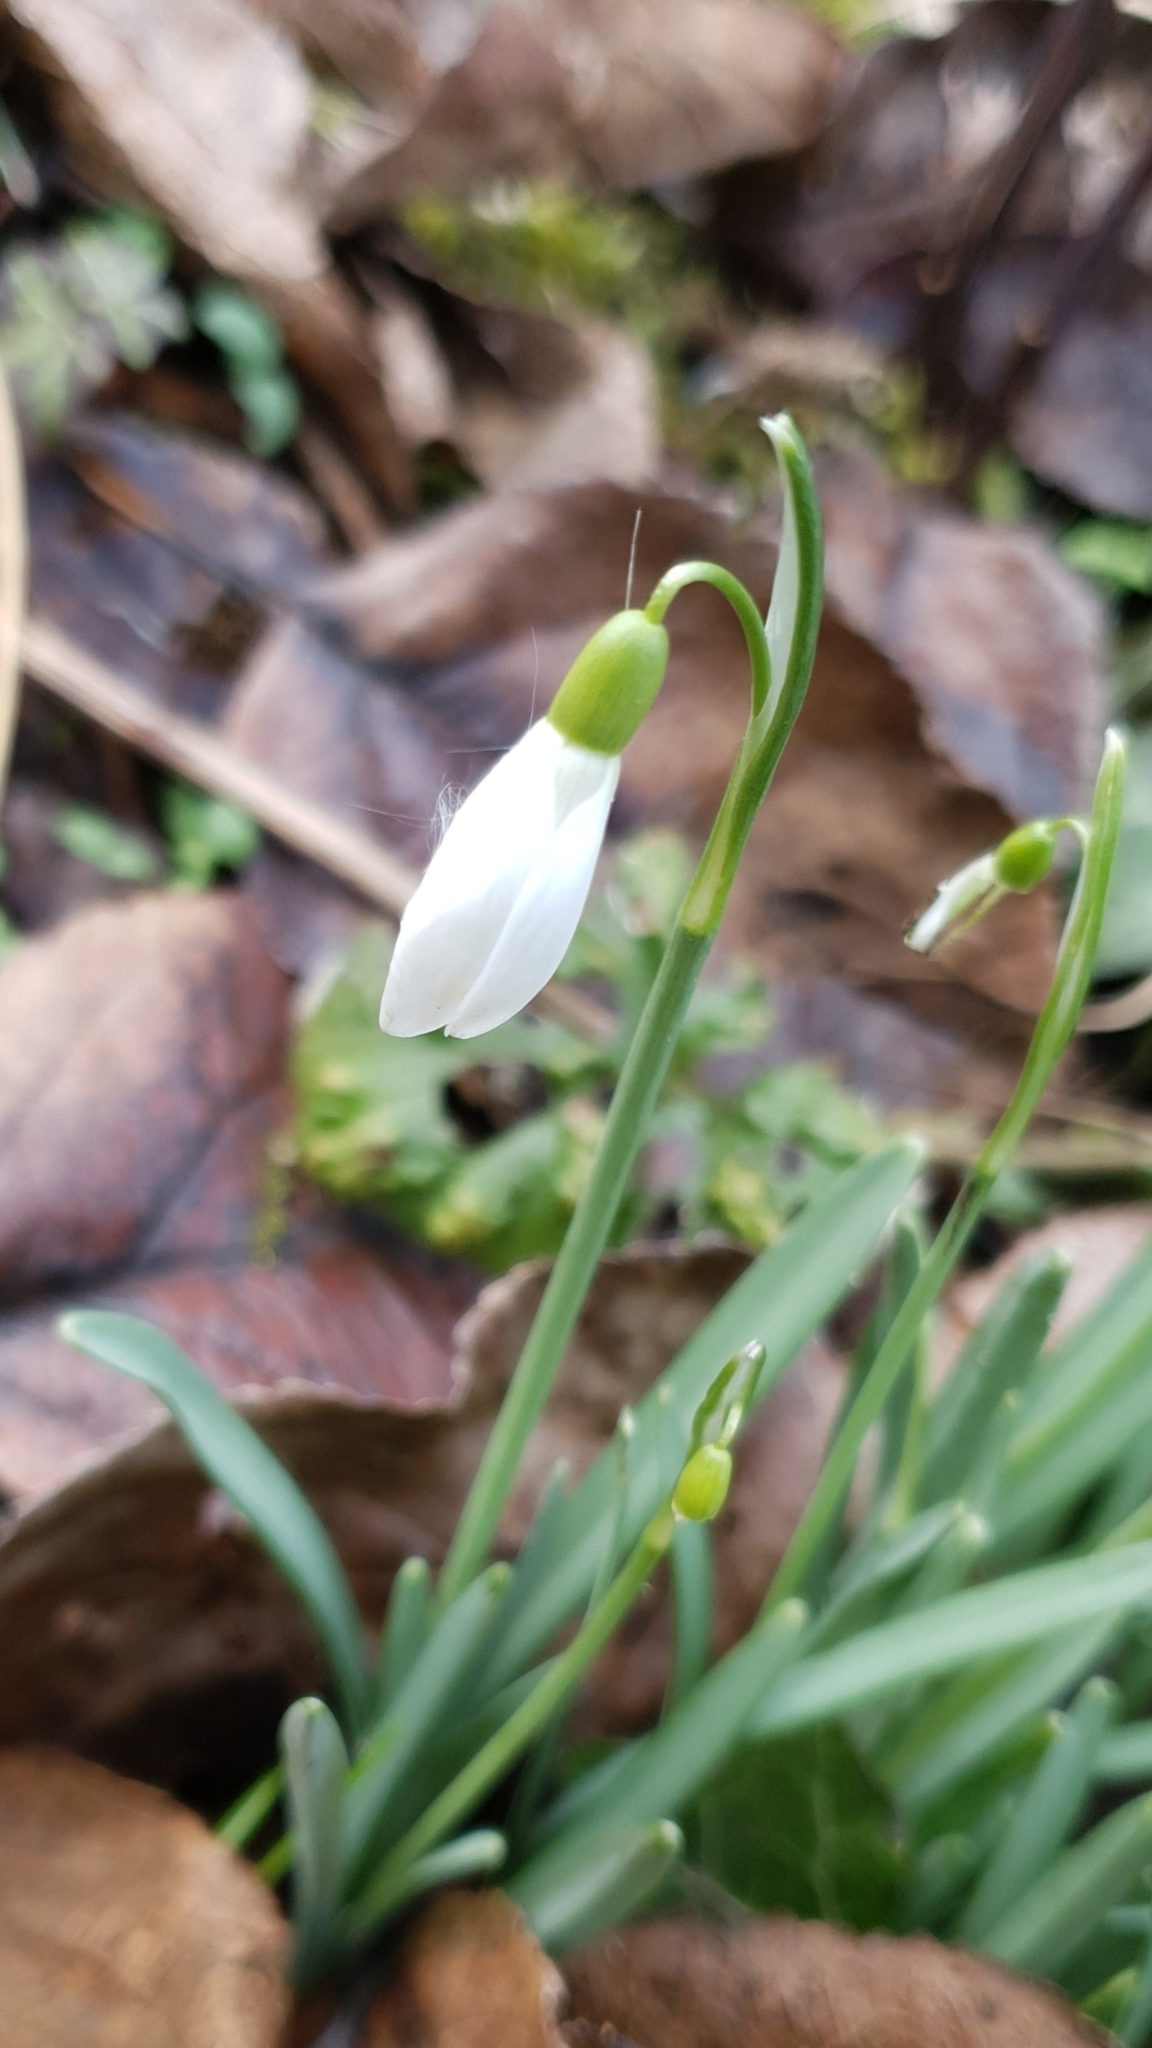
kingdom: Plantae
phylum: Tracheophyta
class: Liliopsida
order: Asparagales
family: Amaryllidaceae
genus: Galanthus
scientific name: Galanthus nivalis
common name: Snowdrop
